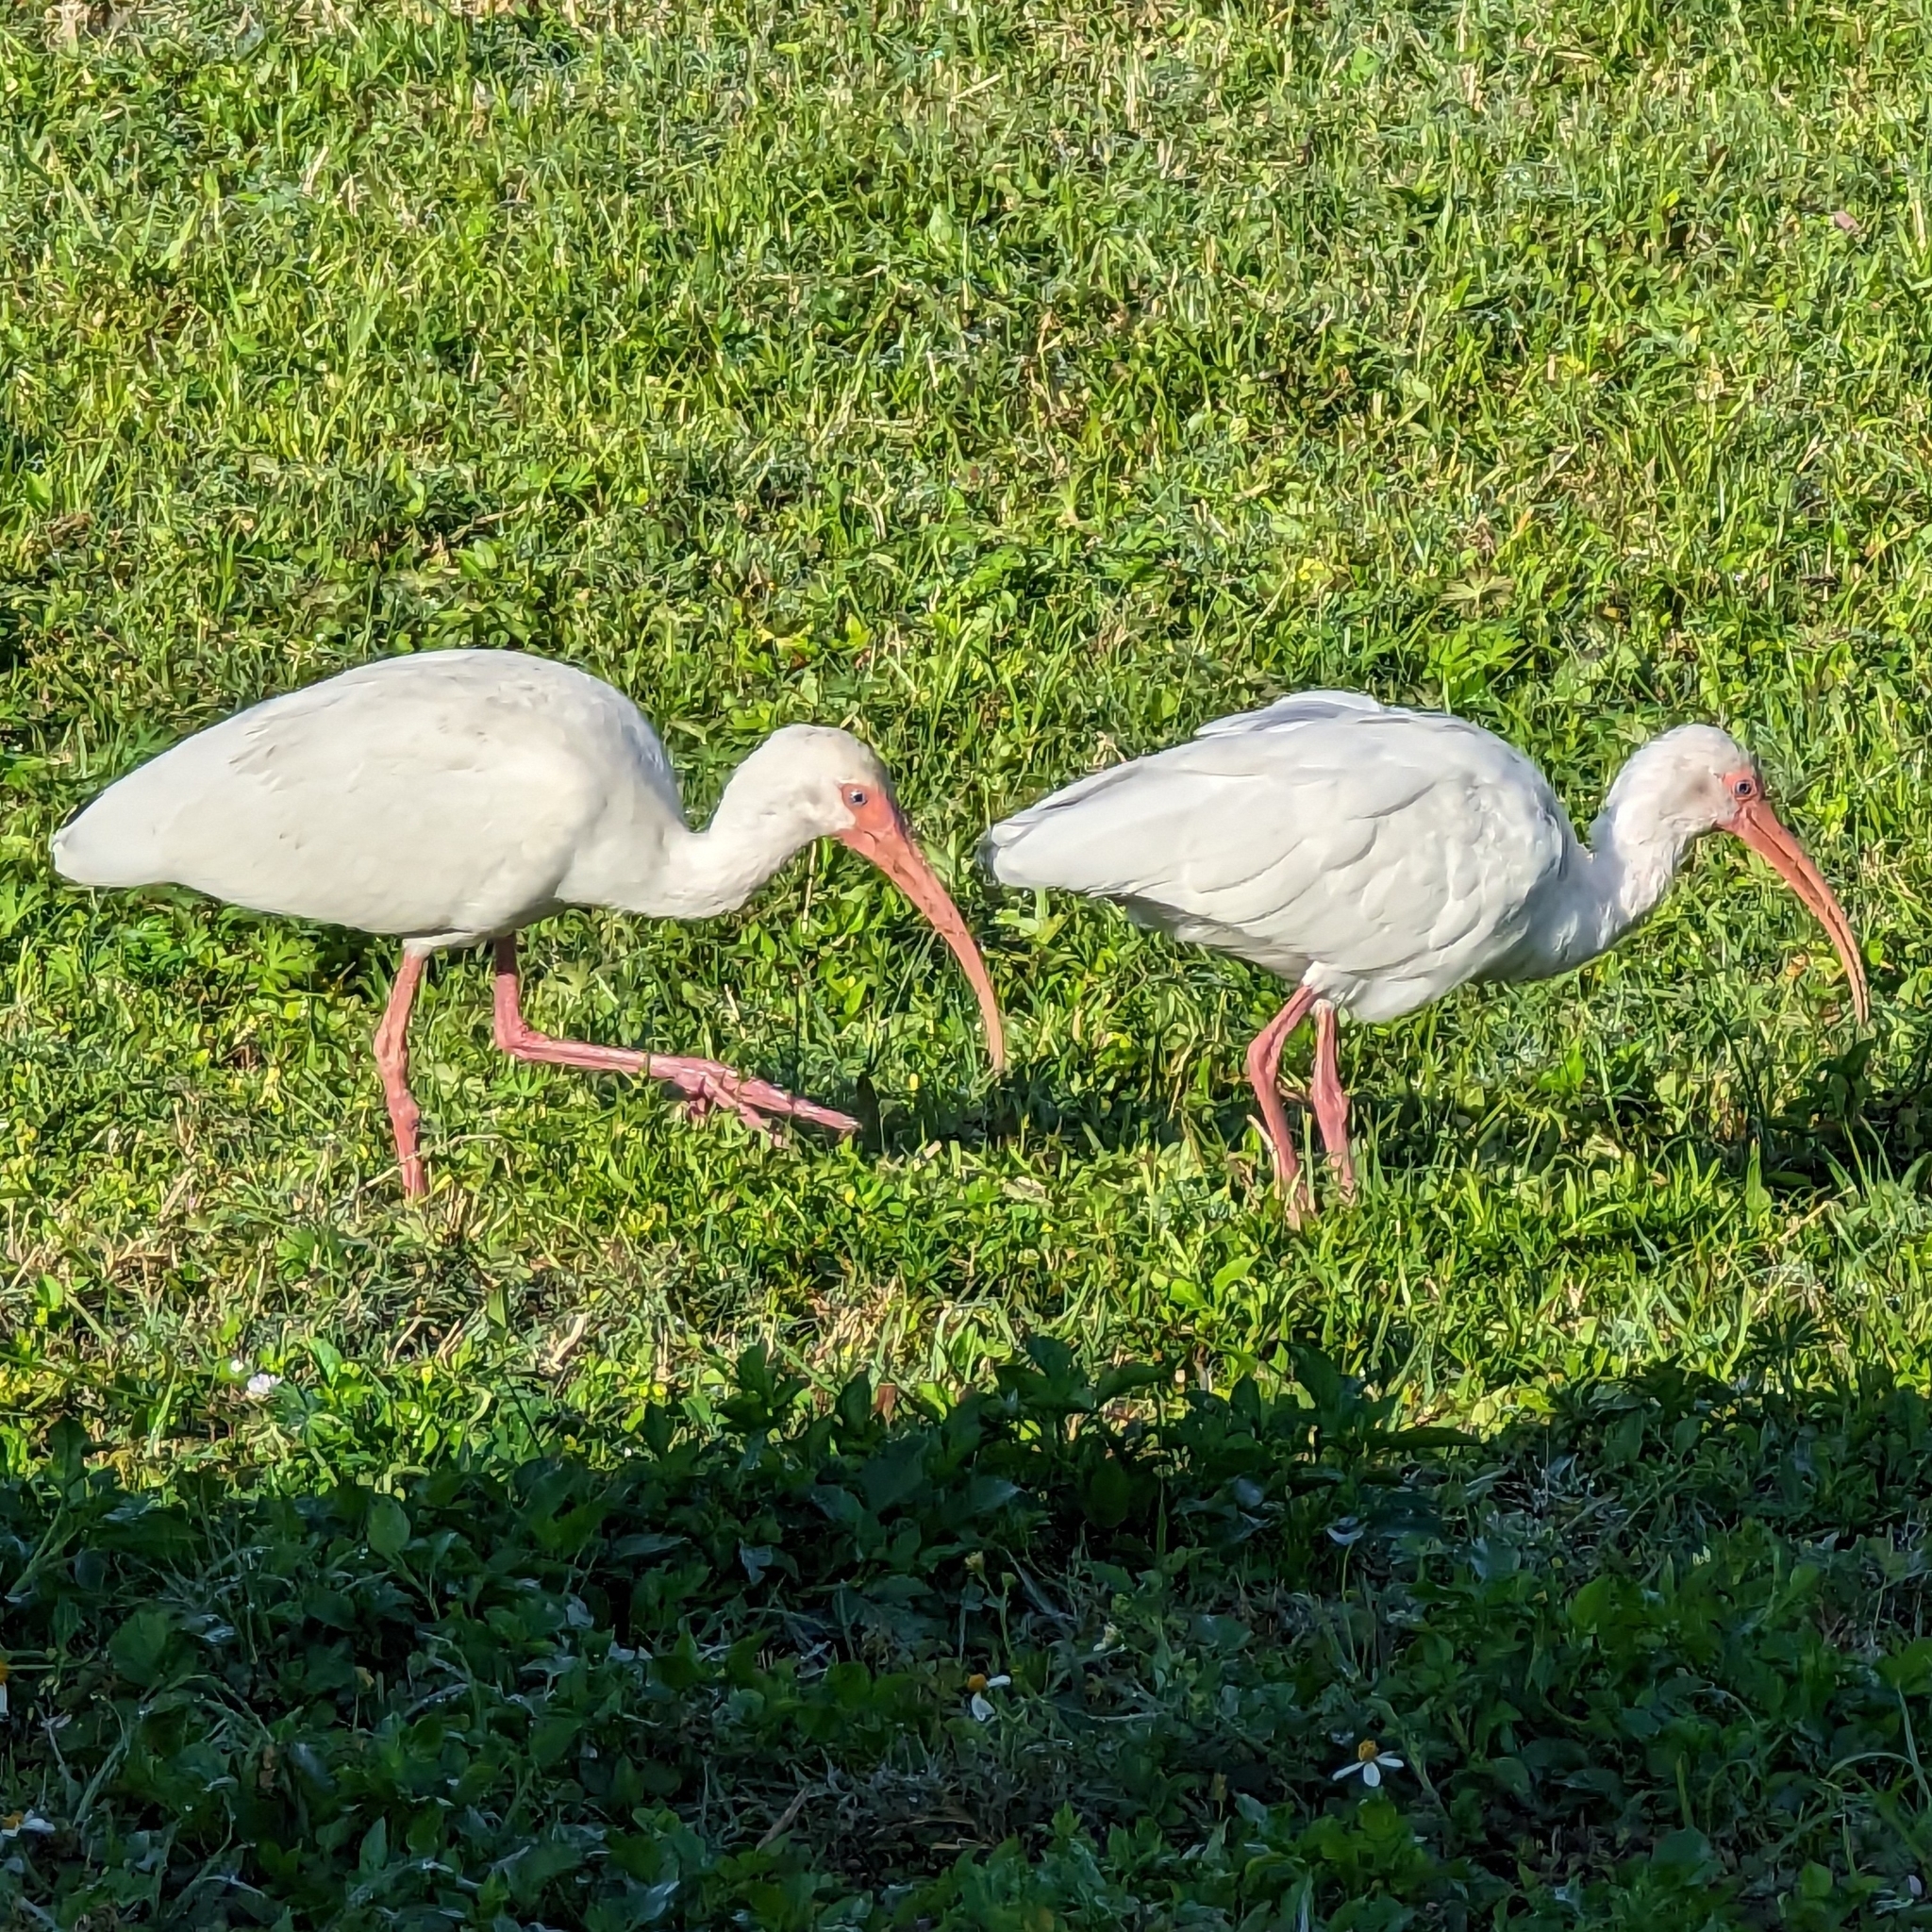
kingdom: Animalia
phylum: Chordata
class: Aves
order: Pelecaniformes
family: Threskiornithidae
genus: Eudocimus
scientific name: Eudocimus albus
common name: White ibis
